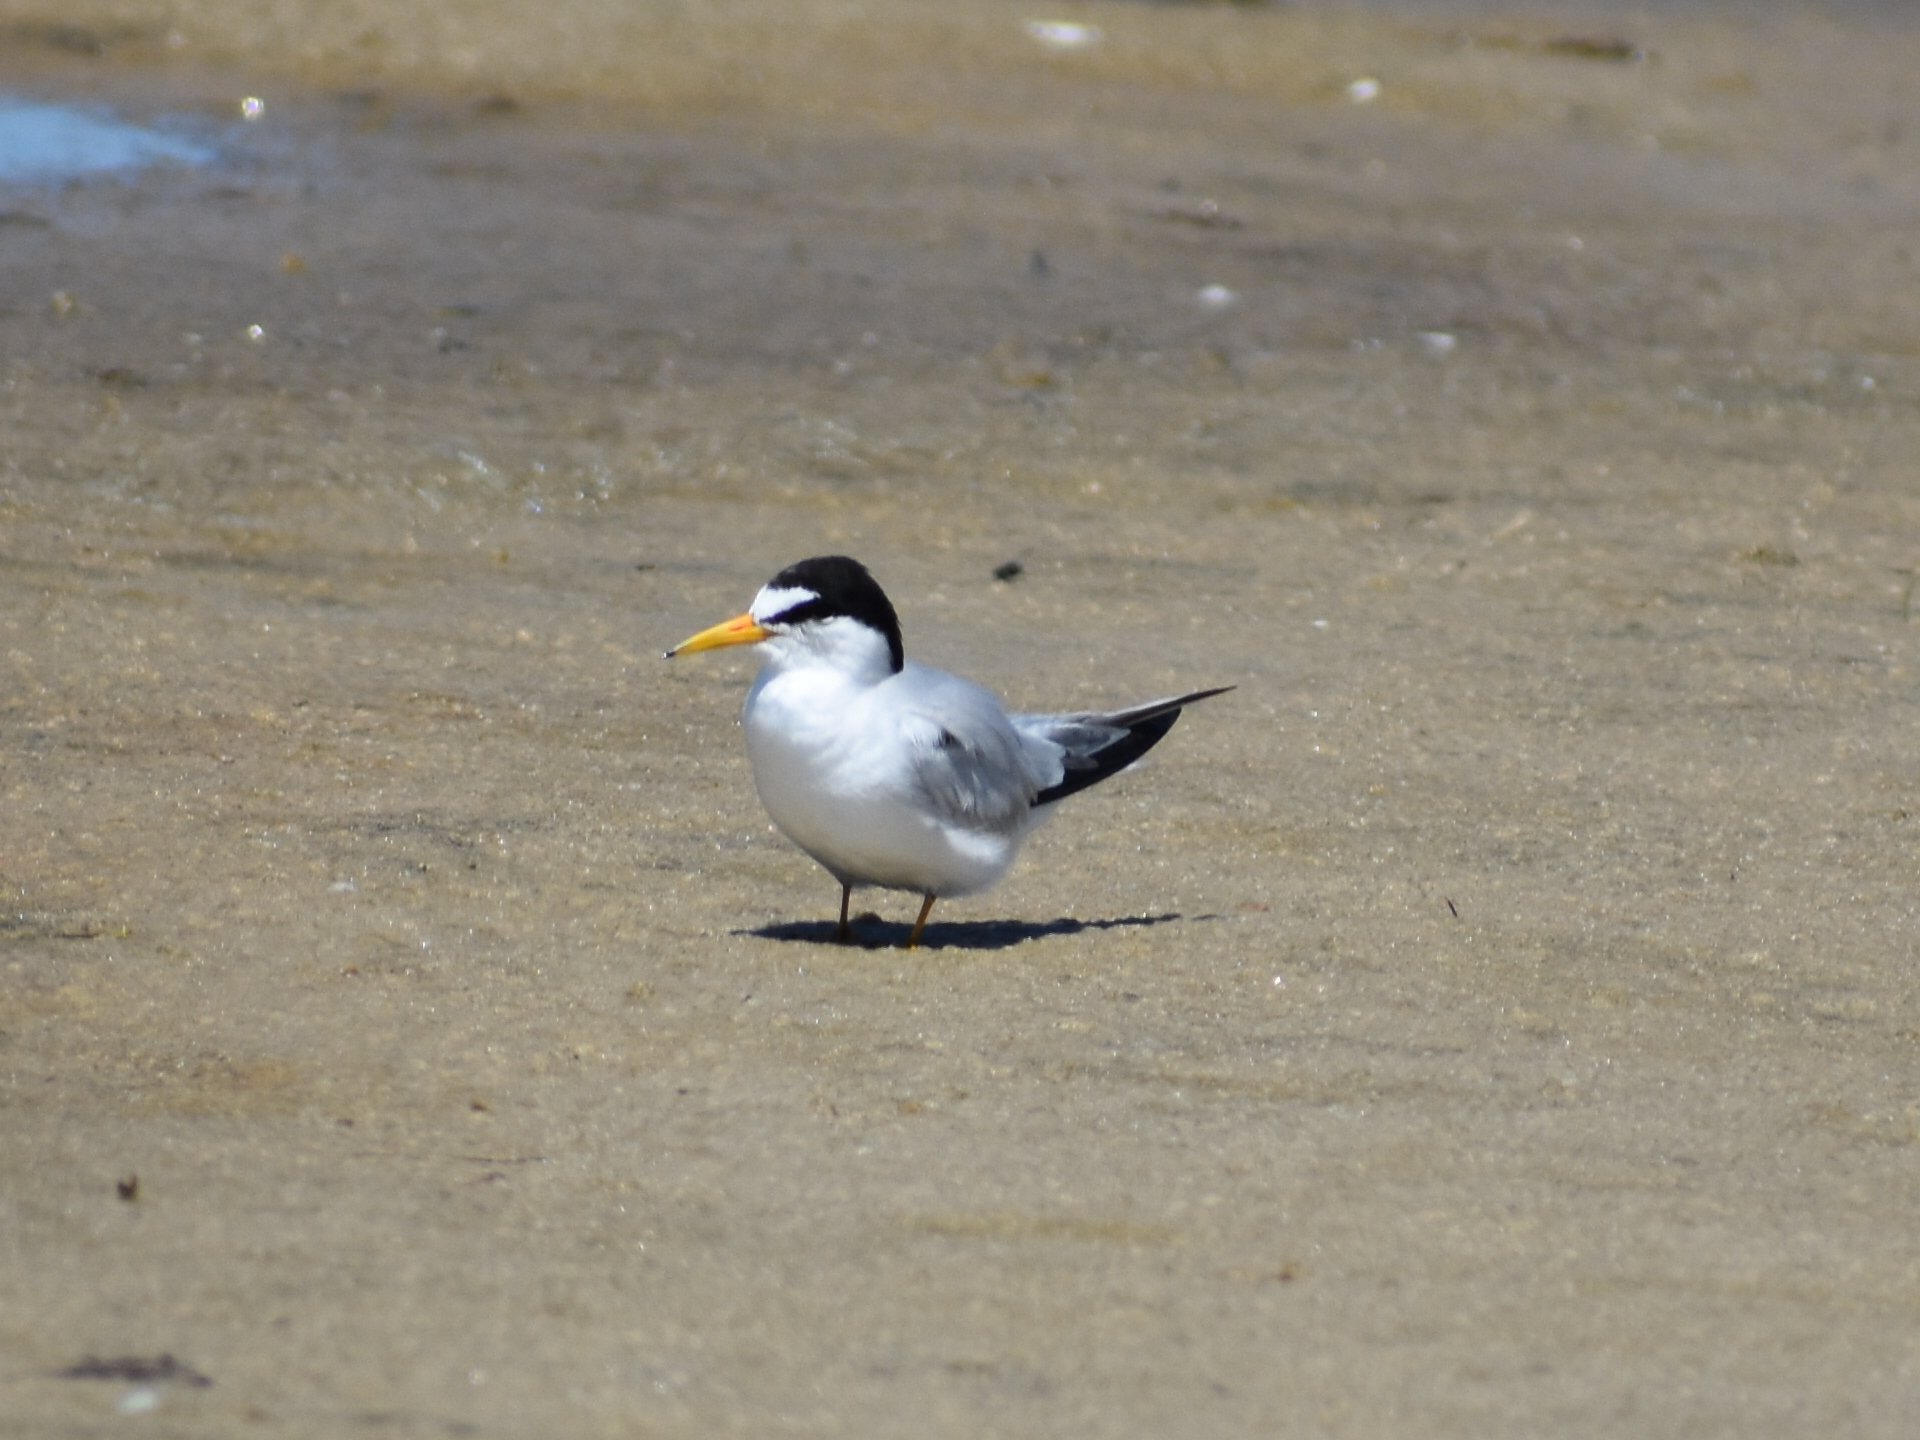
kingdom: Animalia
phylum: Chordata
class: Aves
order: Charadriiformes
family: Laridae
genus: Sternula
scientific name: Sternula antillarum
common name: Least tern
